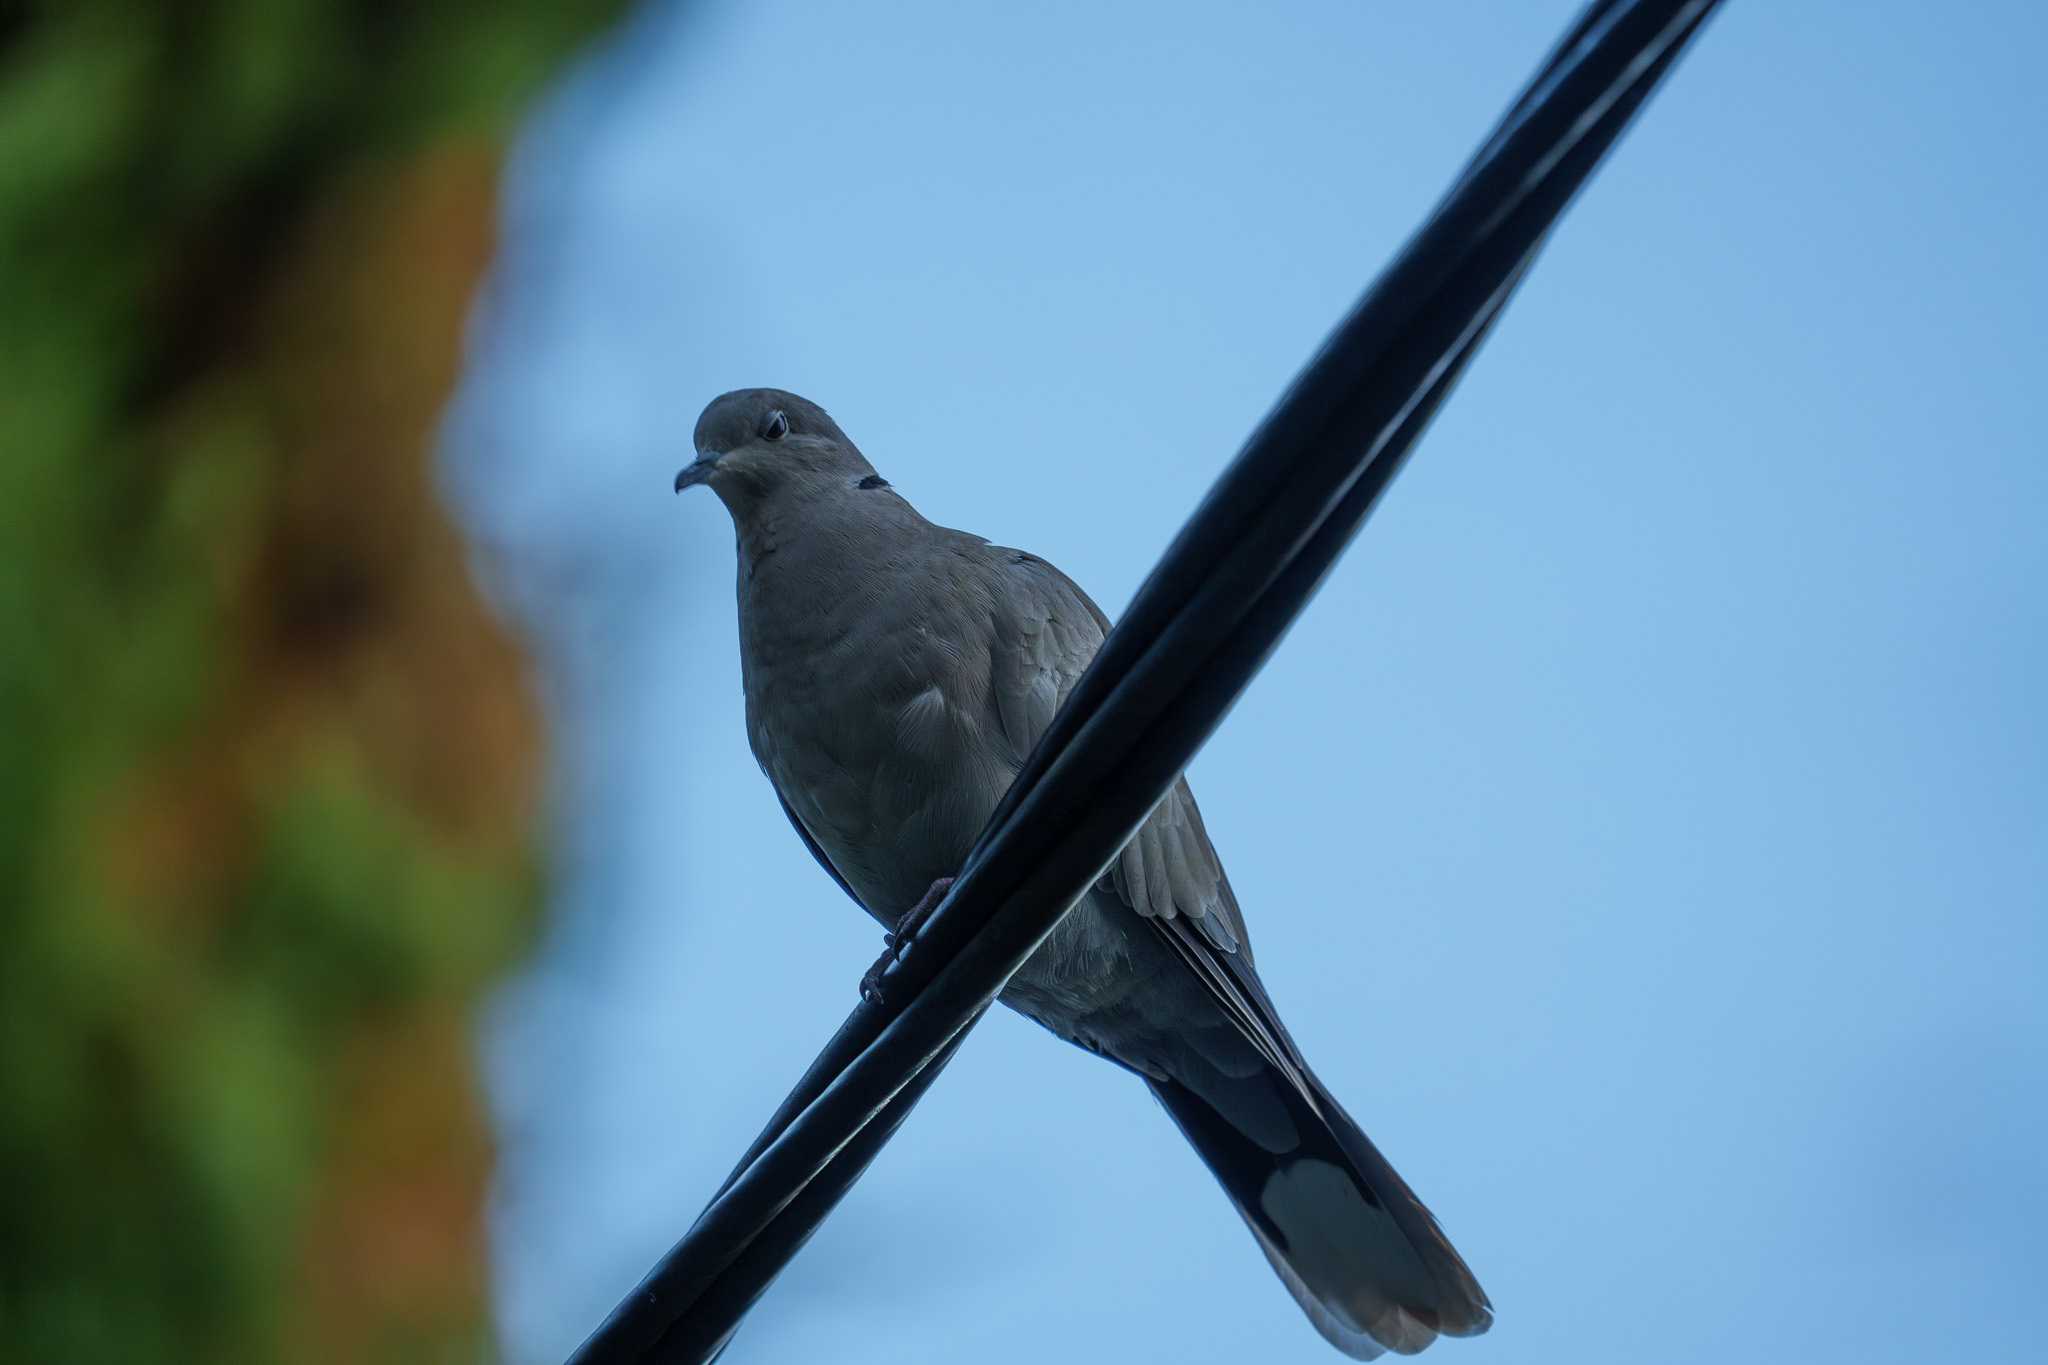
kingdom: Animalia
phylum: Chordata
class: Aves
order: Columbiformes
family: Columbidae
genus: Streptopelia
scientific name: Streptopelia decaocto
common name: Eurasian collared dove
